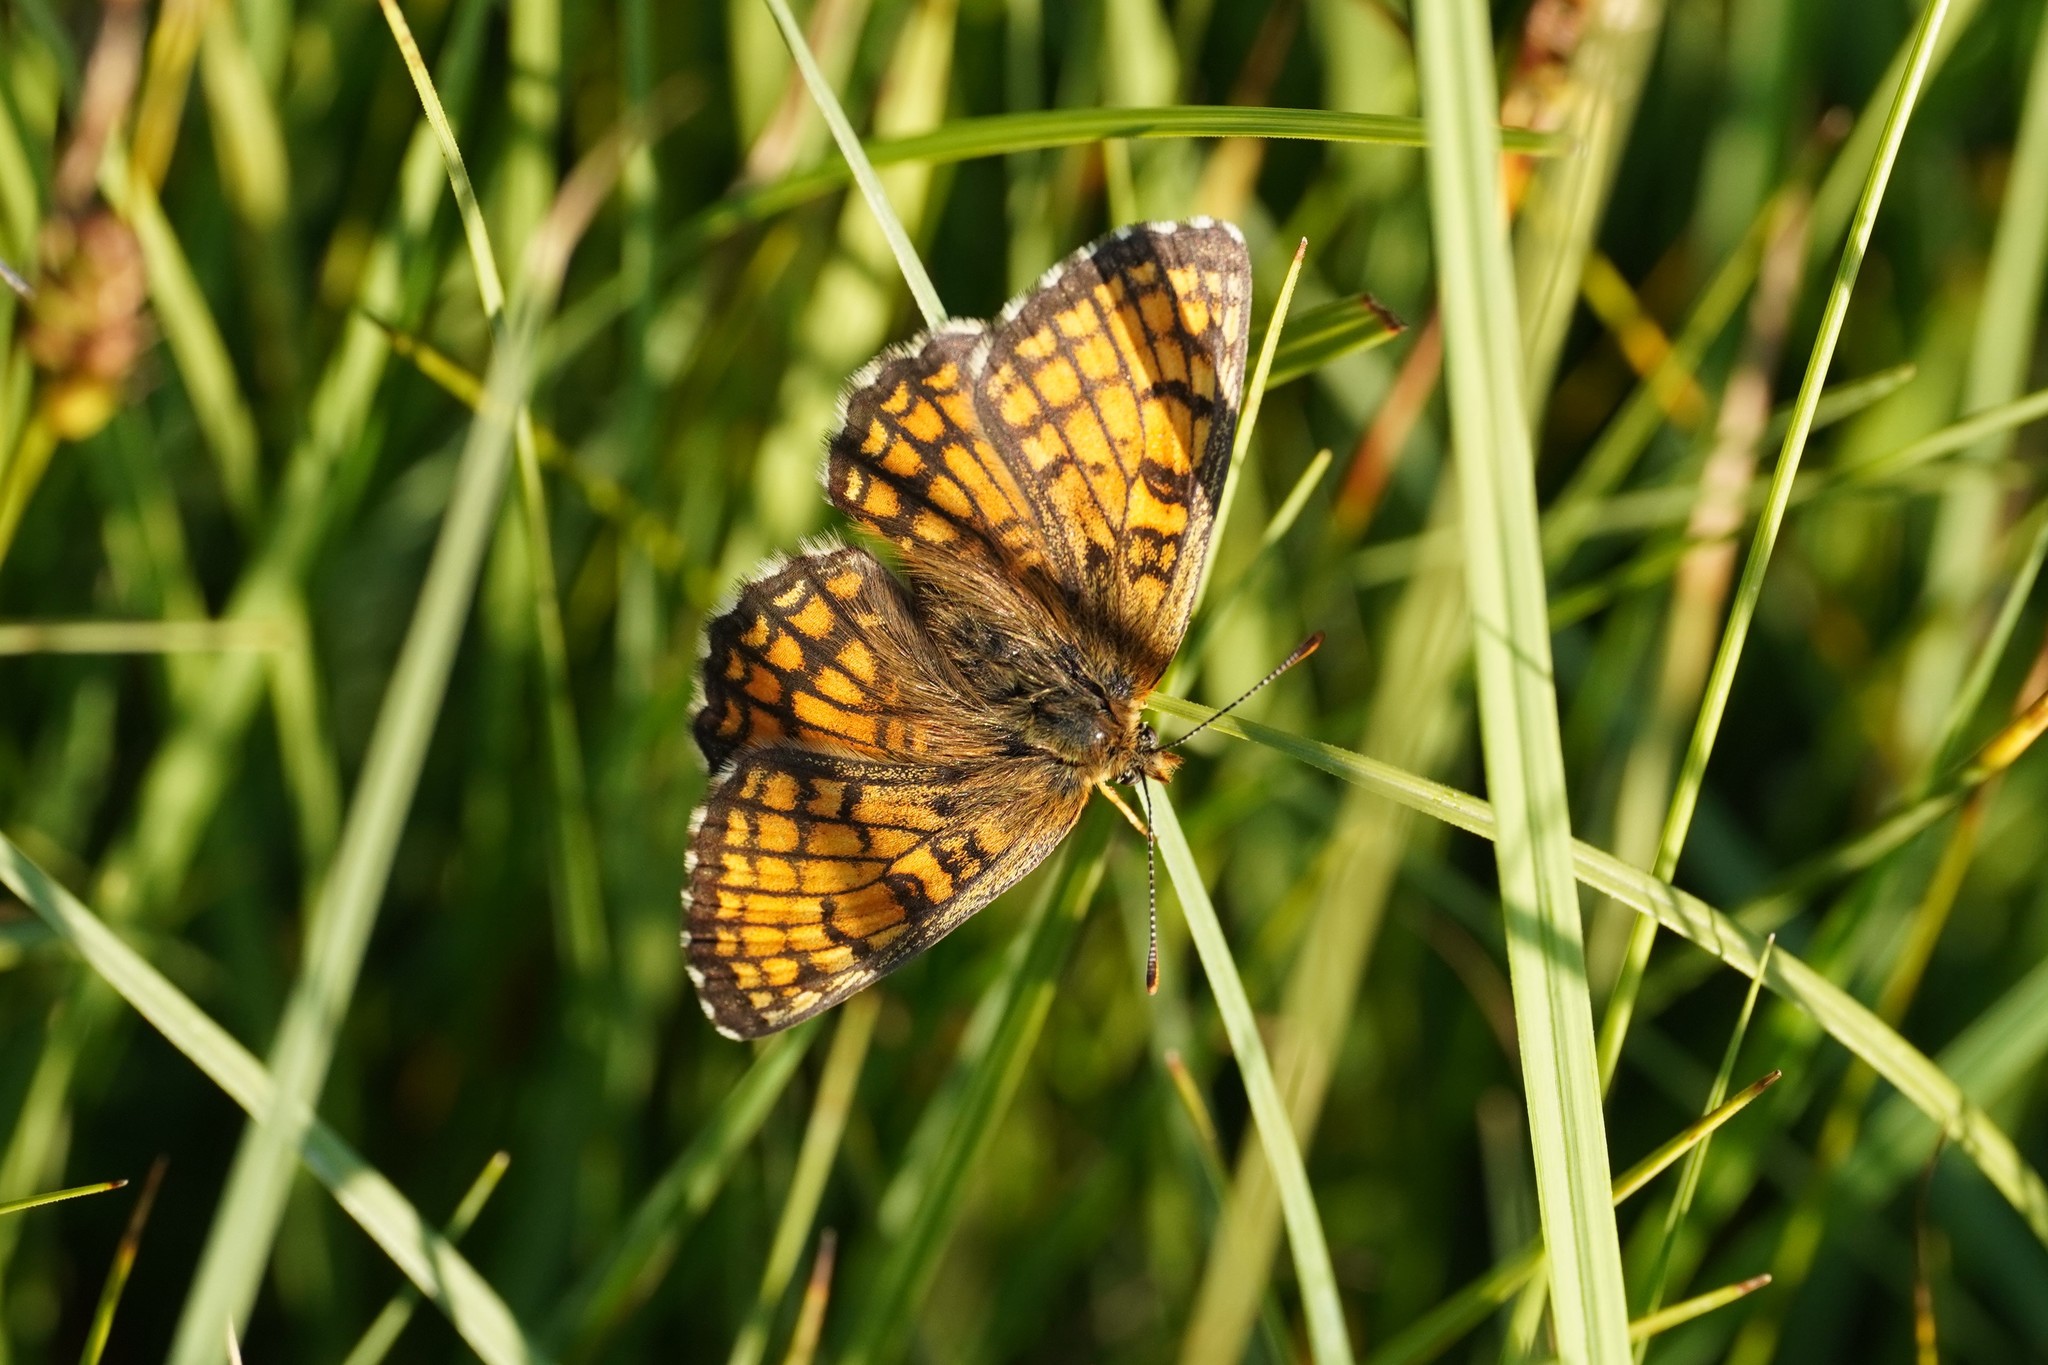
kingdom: Animalia
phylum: Arthropoda
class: Insecta
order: Lepidoptera
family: Nymphalidae
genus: Mellicta
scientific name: Mellicta parthenoides
